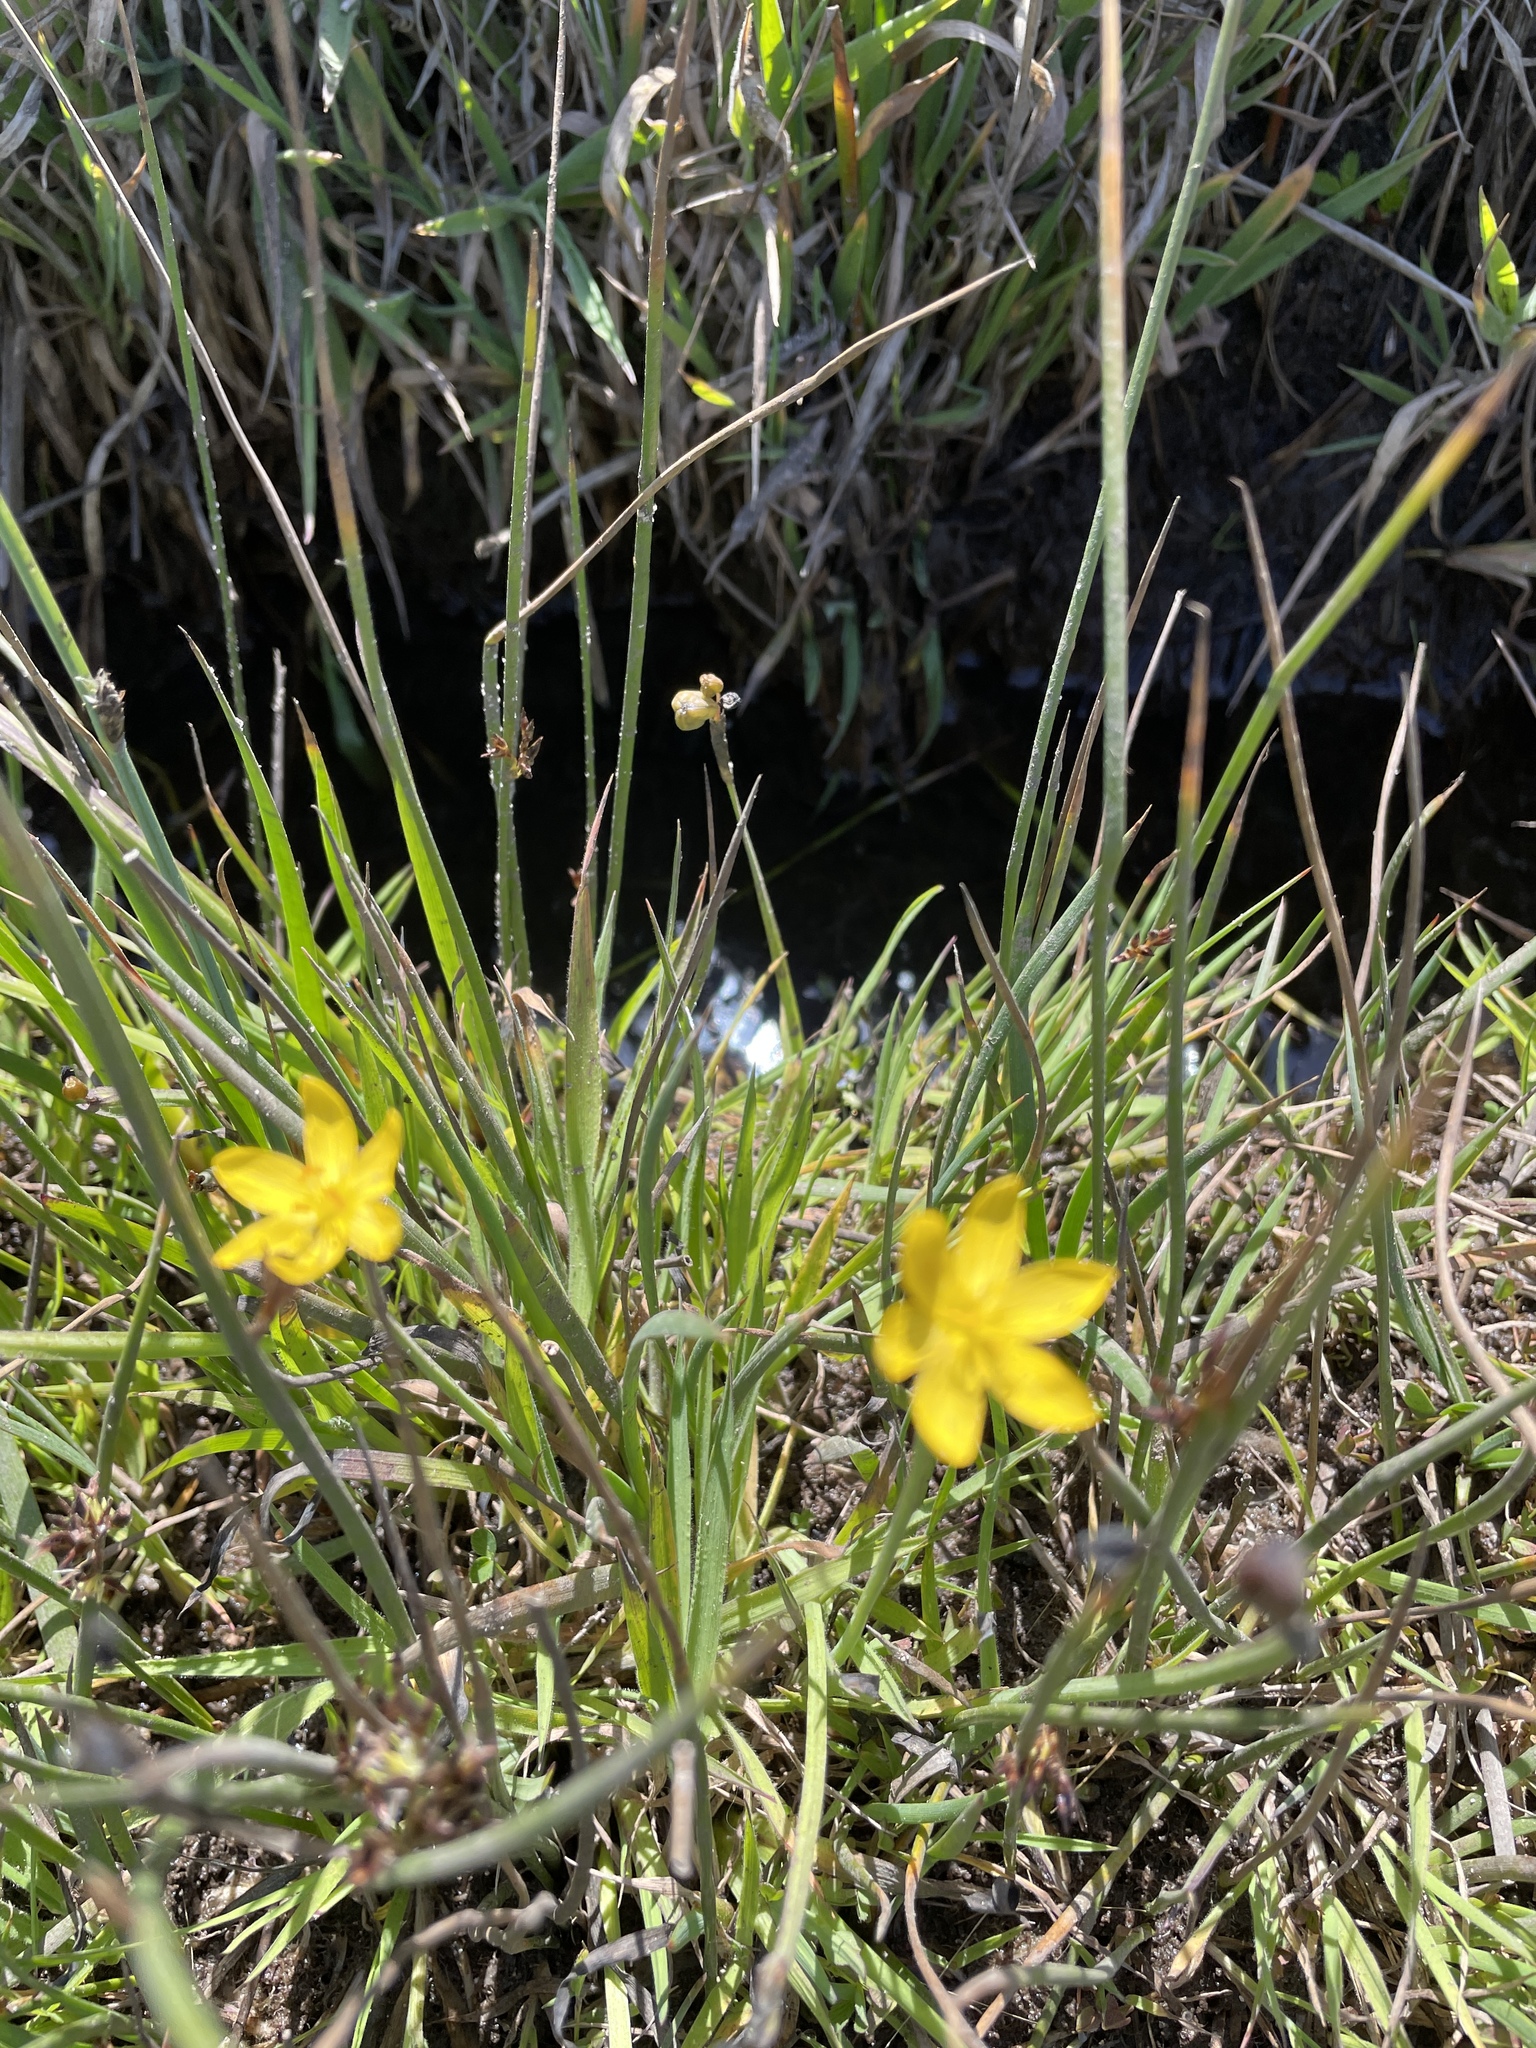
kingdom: Plantae
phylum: Tracheophyta
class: Liliopsida
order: Asparagales
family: Iridaceae
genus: Sisyrinchium
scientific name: Sisyrinchium californicum
